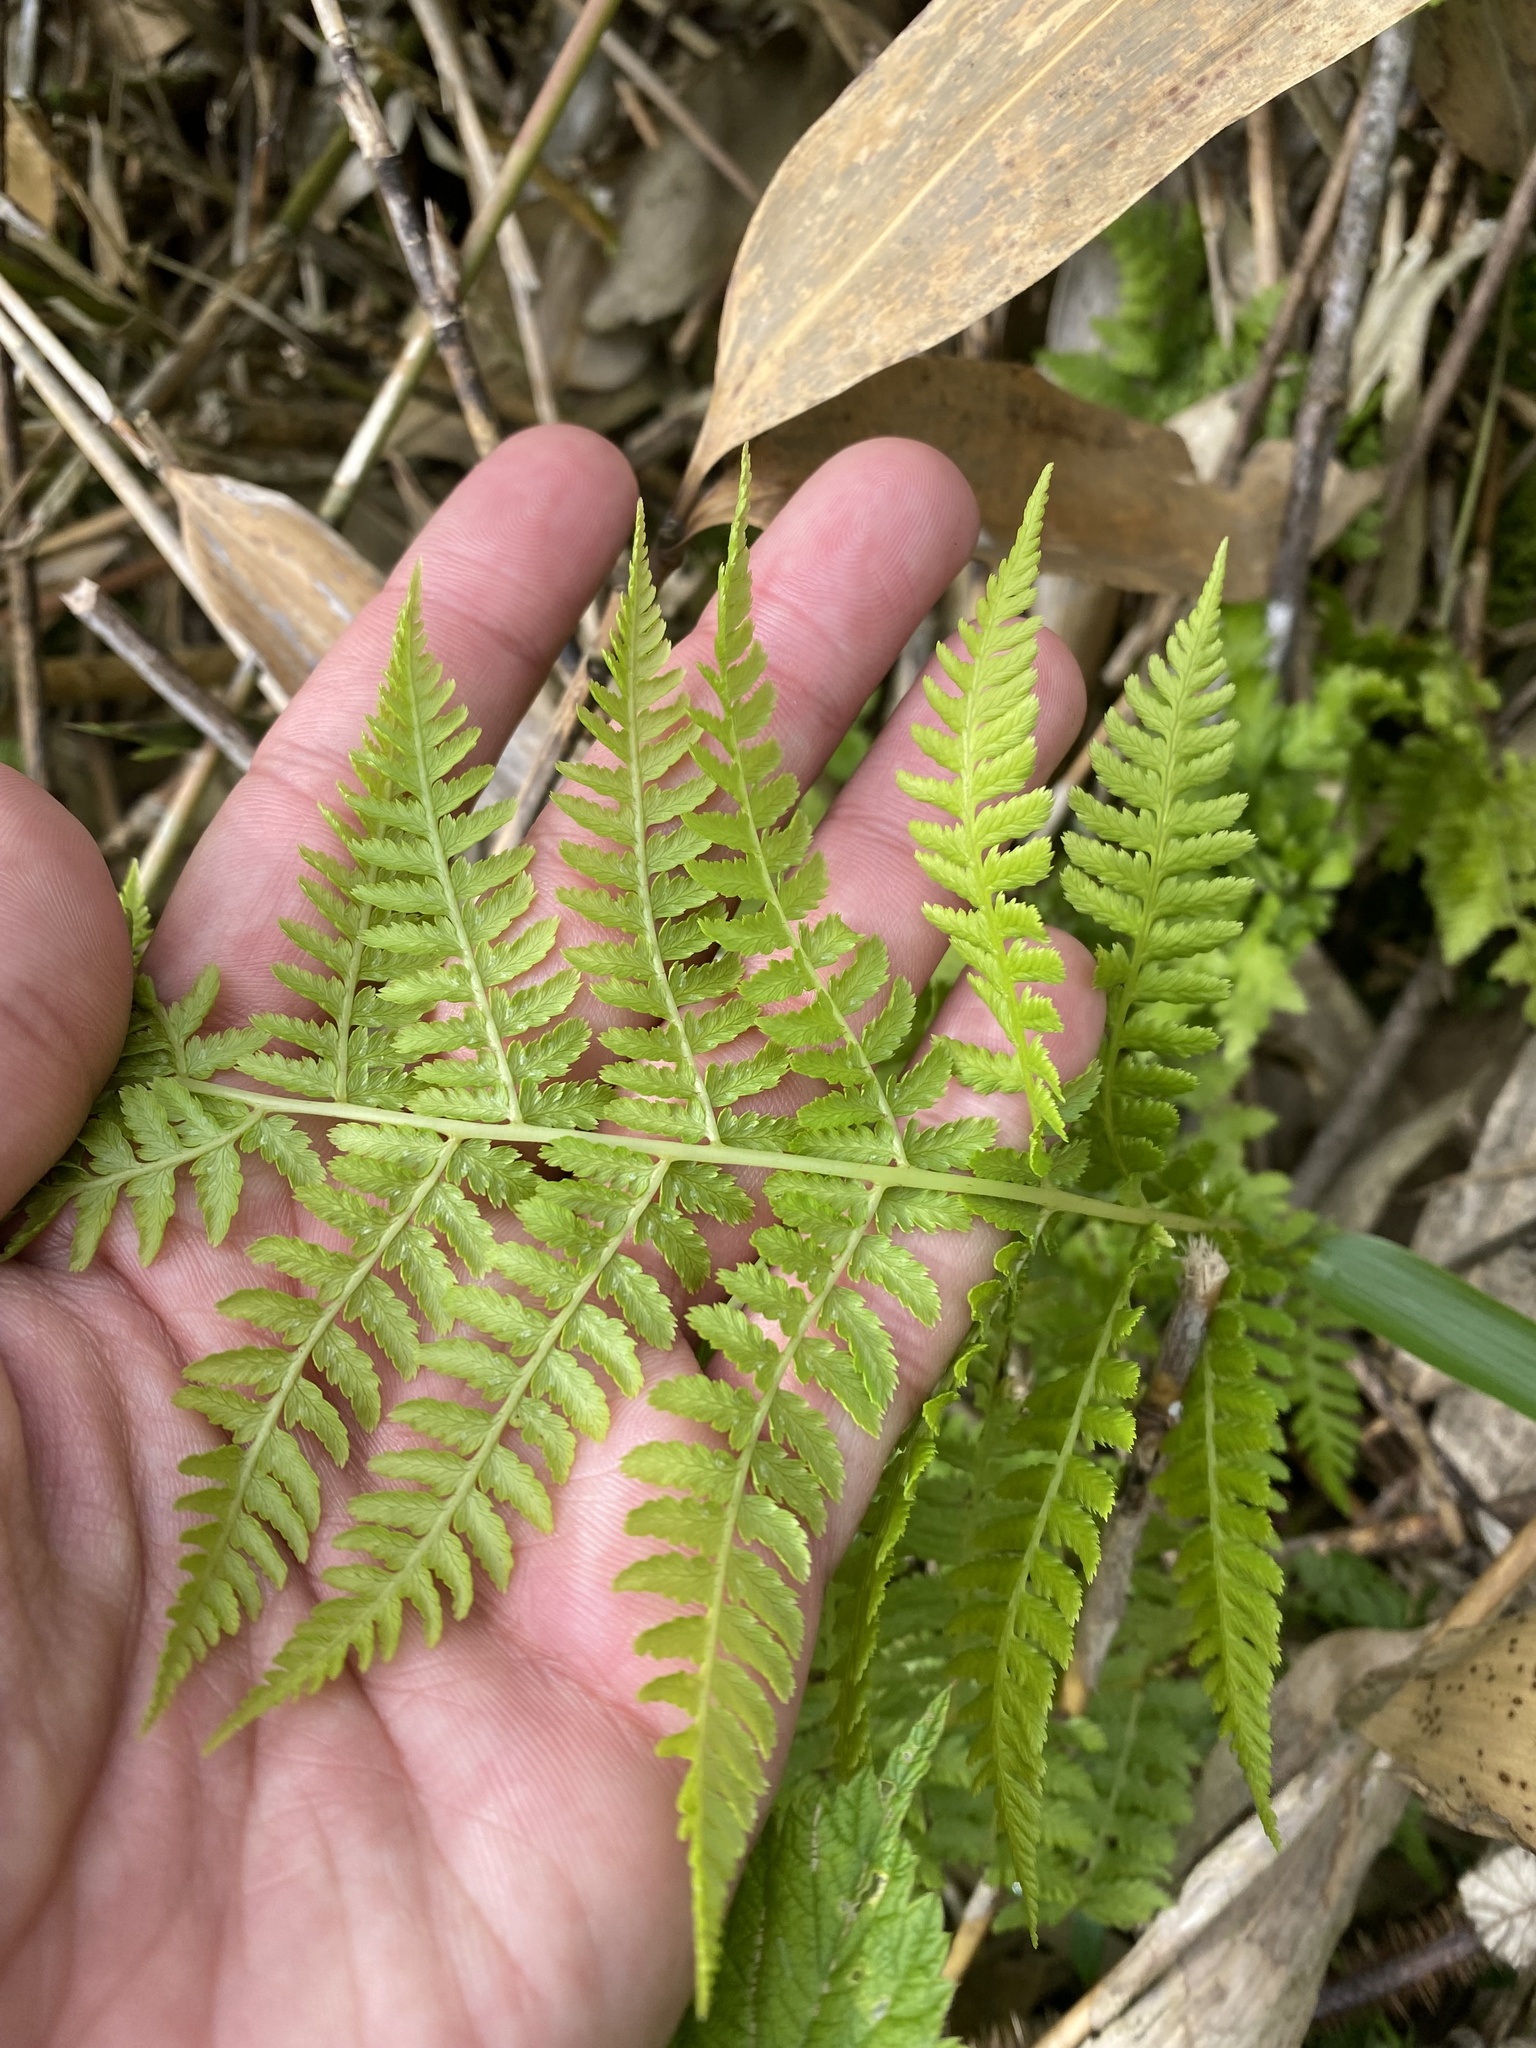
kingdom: Plantae
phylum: Tracheophyta
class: Polypodiopsida
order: Polypodiales
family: Athyriaceae
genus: Athyrium
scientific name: Athyrium filix-femina
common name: Lady fern
